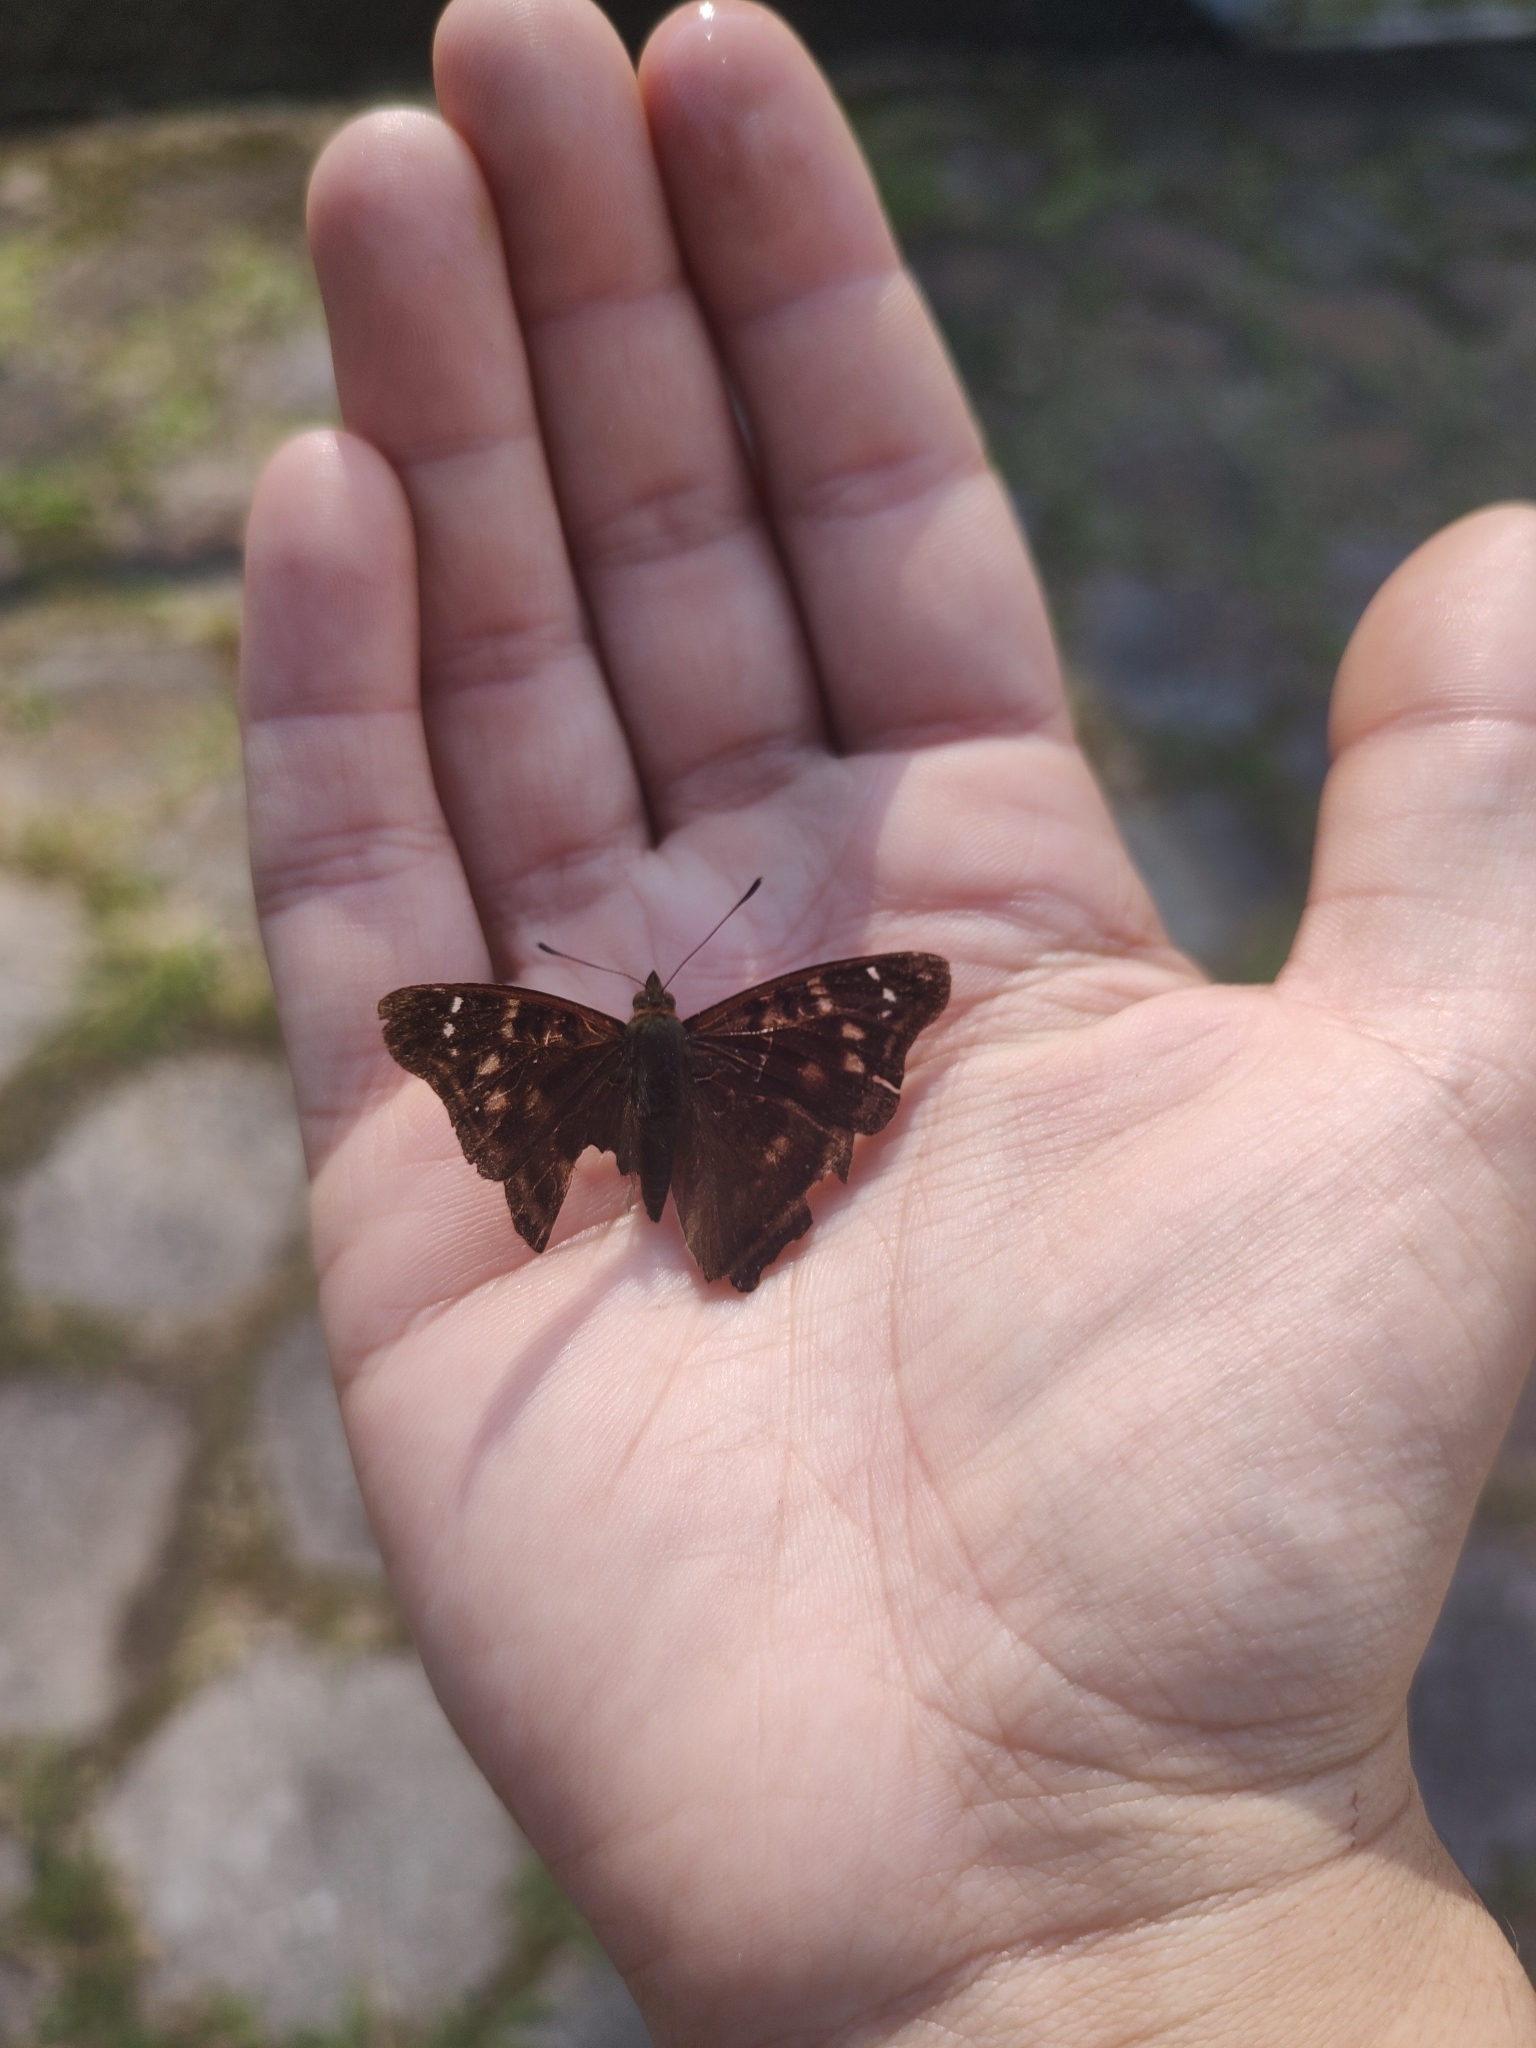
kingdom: Animalia
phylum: Arthropoda
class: Insecta
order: Lepidoptera
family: Nymphalidae
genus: Doxocopa
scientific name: Doxocopa kallina
